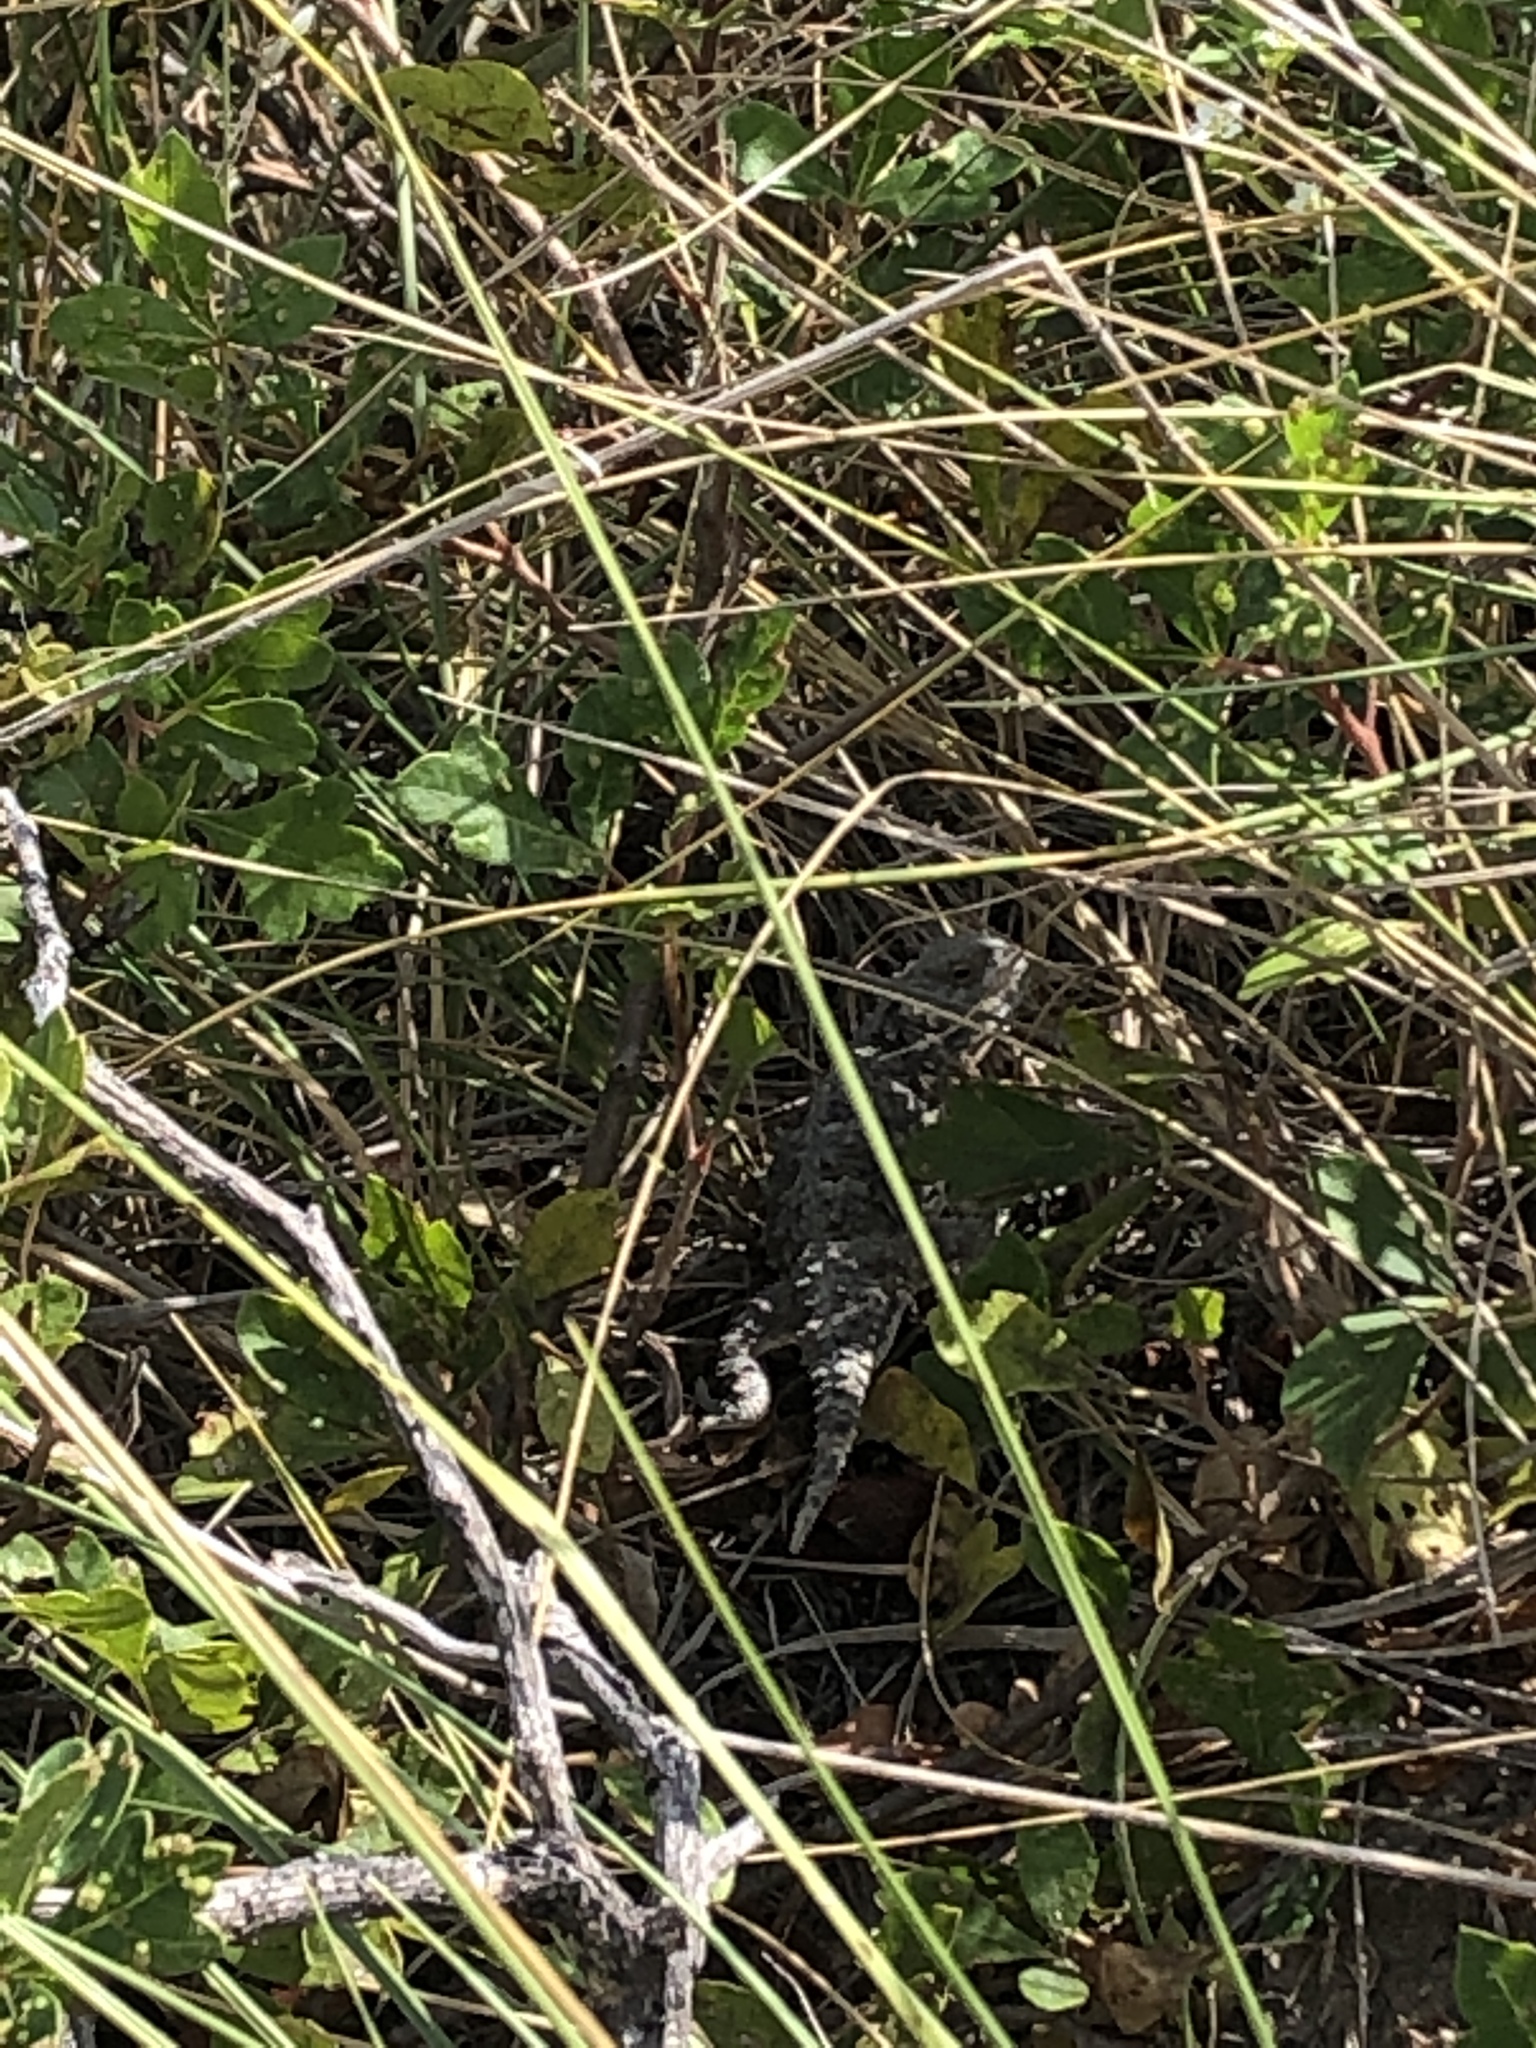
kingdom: Animalia
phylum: Chordata
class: Squamata
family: Phrynosomatidae
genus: Phrynosoma
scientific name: Phrynosoma hernandesi
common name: Greater short-horned lizard
